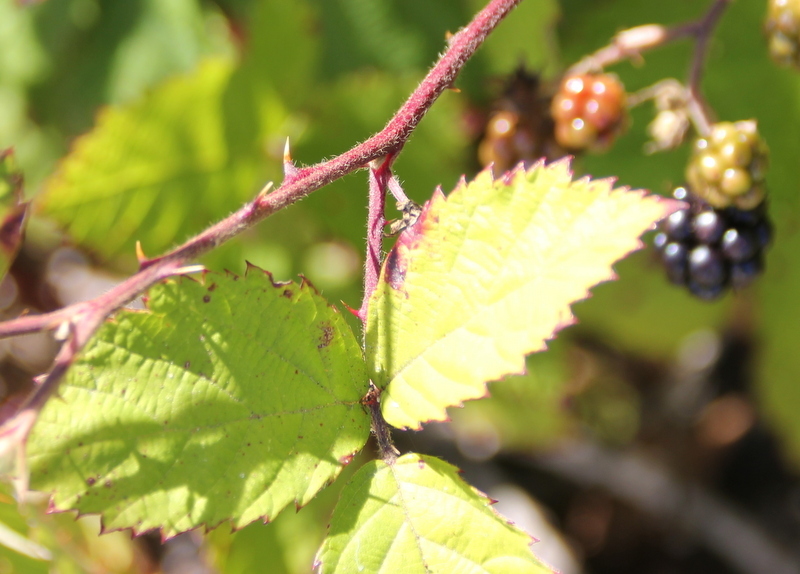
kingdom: Plantae
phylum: Tracheophyta
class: Magnoliopsida
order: Rosales
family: Rosaceae
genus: Rubus
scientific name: Rubus bifrons
